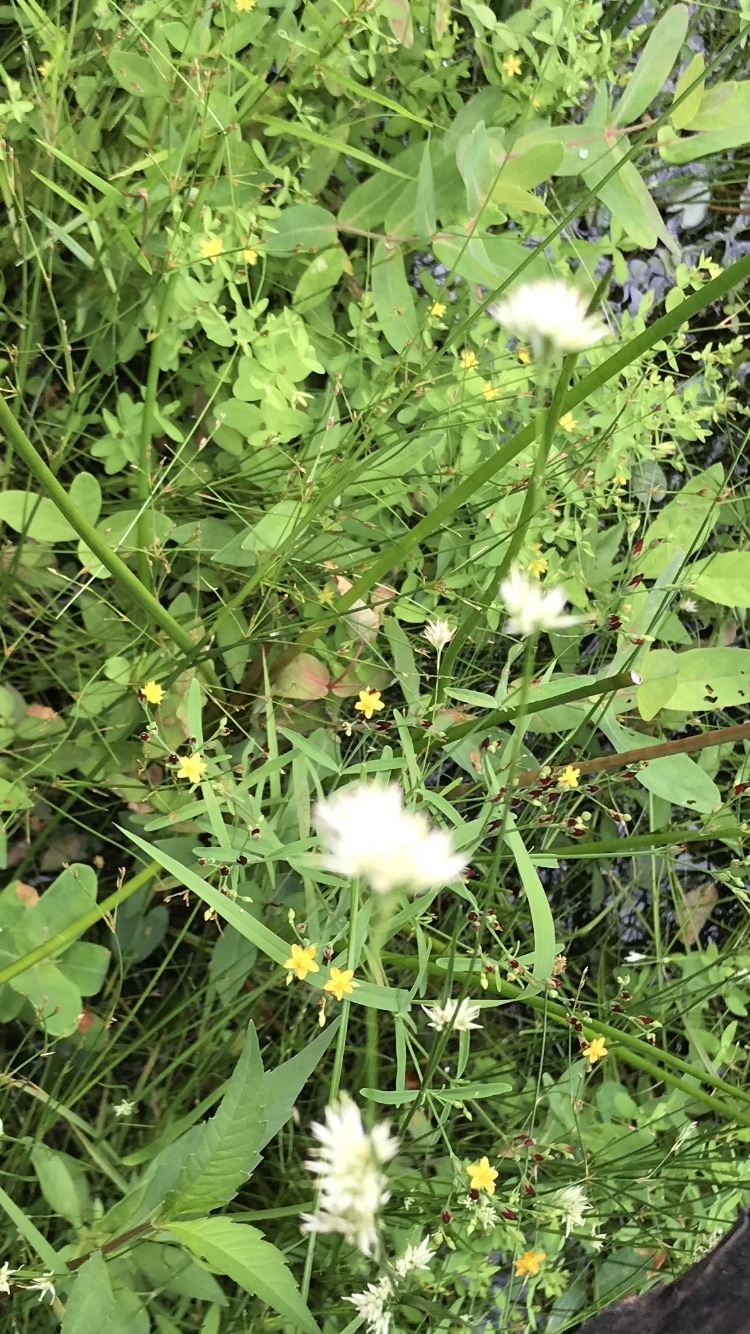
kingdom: Plantae
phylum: Tracheophyta
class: Magnoliopsida
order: Malpighiales
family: Hypericaceae
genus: Hypericum
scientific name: Hypericum mutilum
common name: Dwarf st. john's-wort
